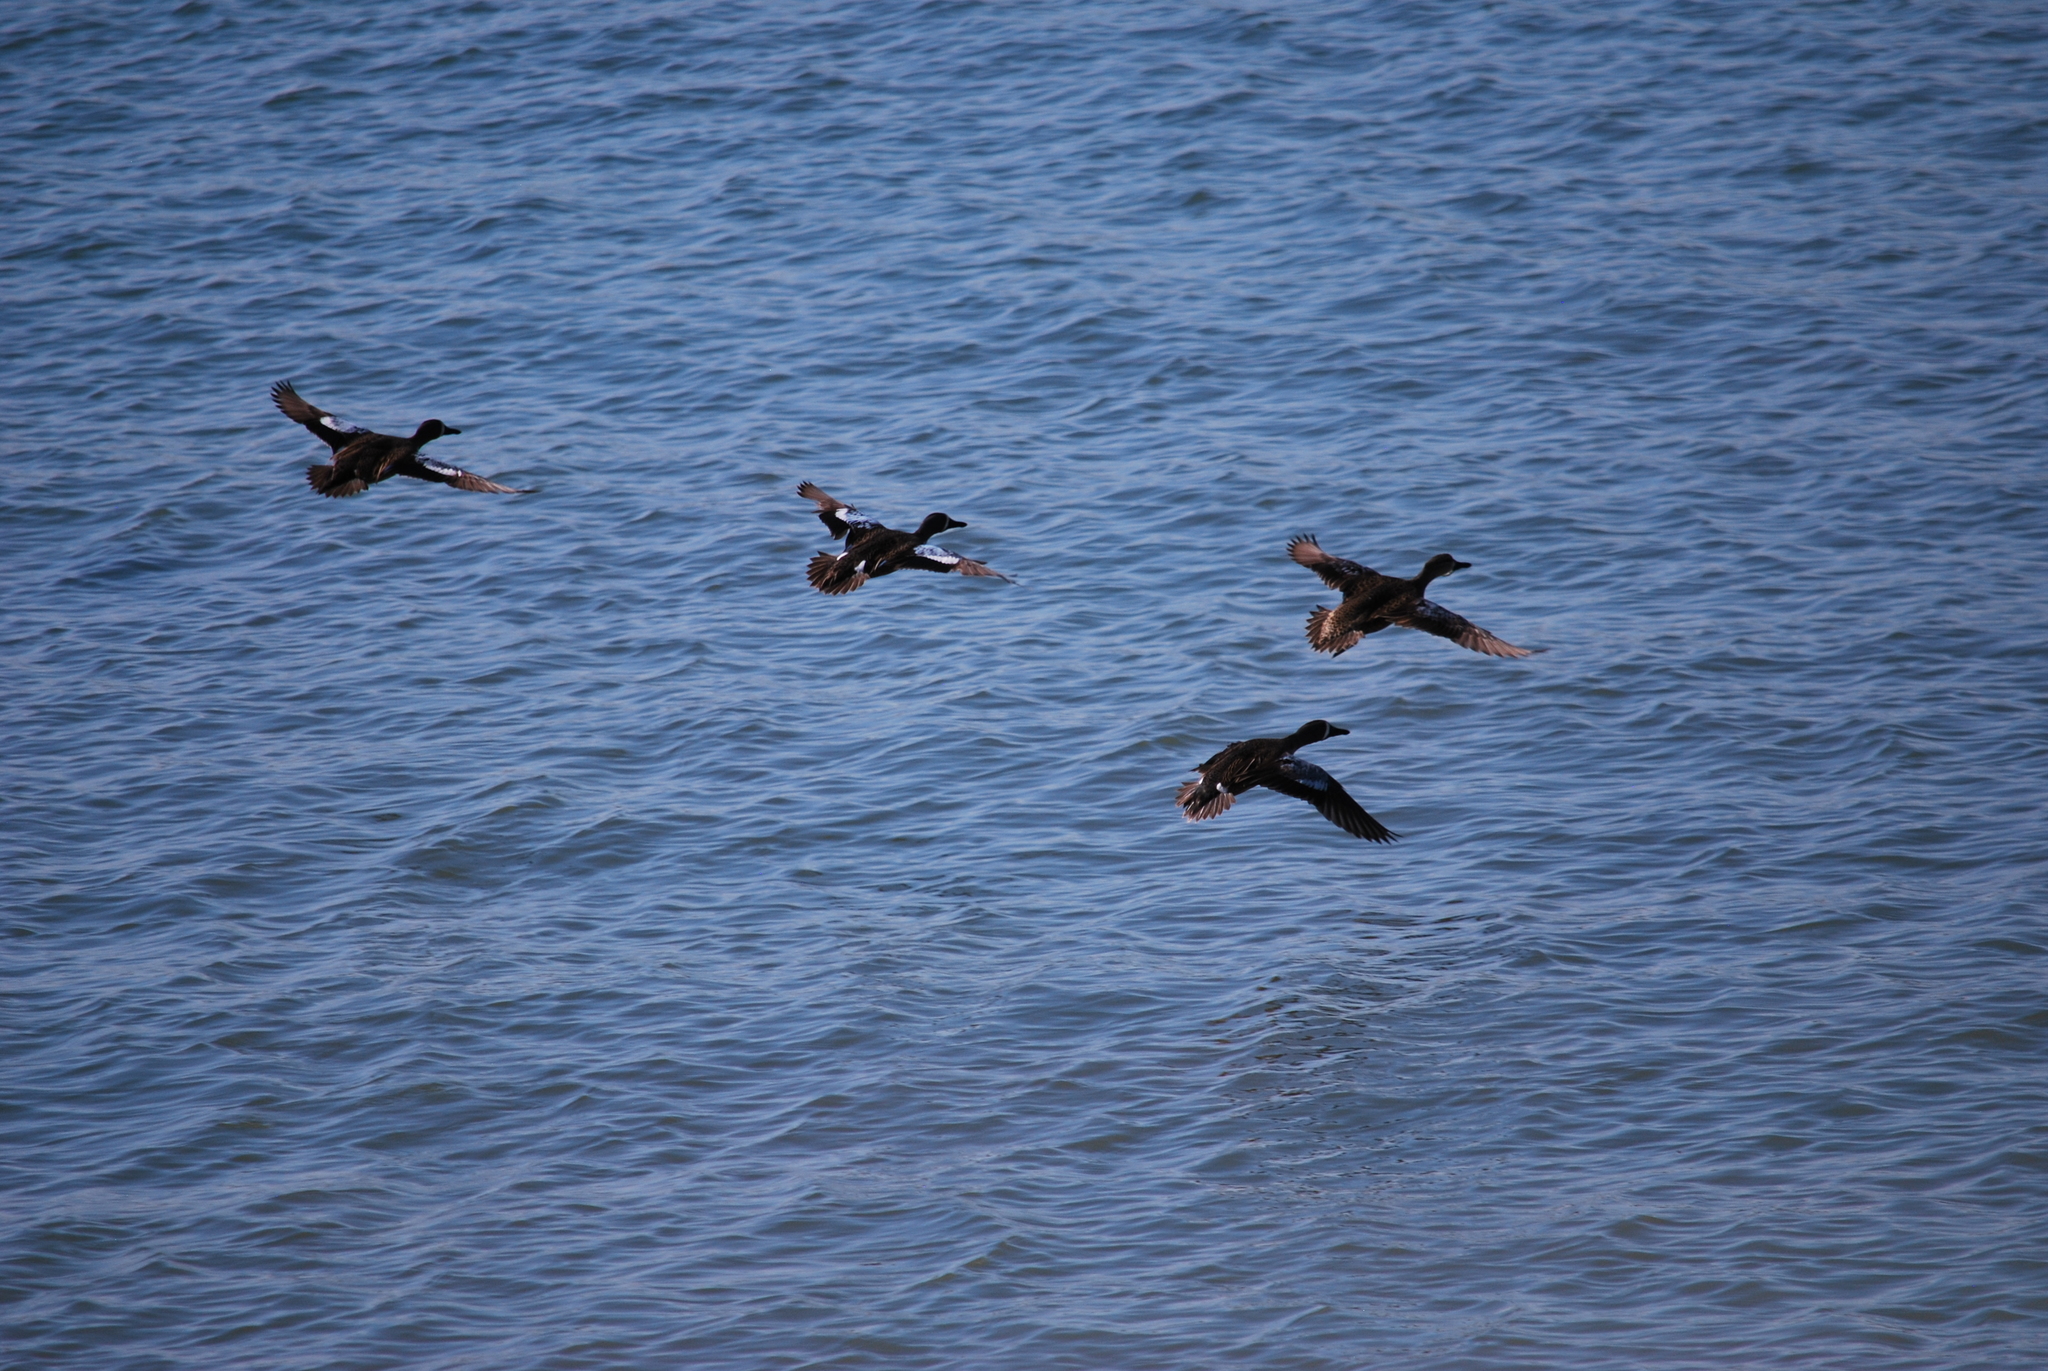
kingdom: Animalia
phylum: Chordata
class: Aves
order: Anseriformes
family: Anatidae
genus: Spatula
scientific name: Spatula discors
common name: Blue-winged teal
